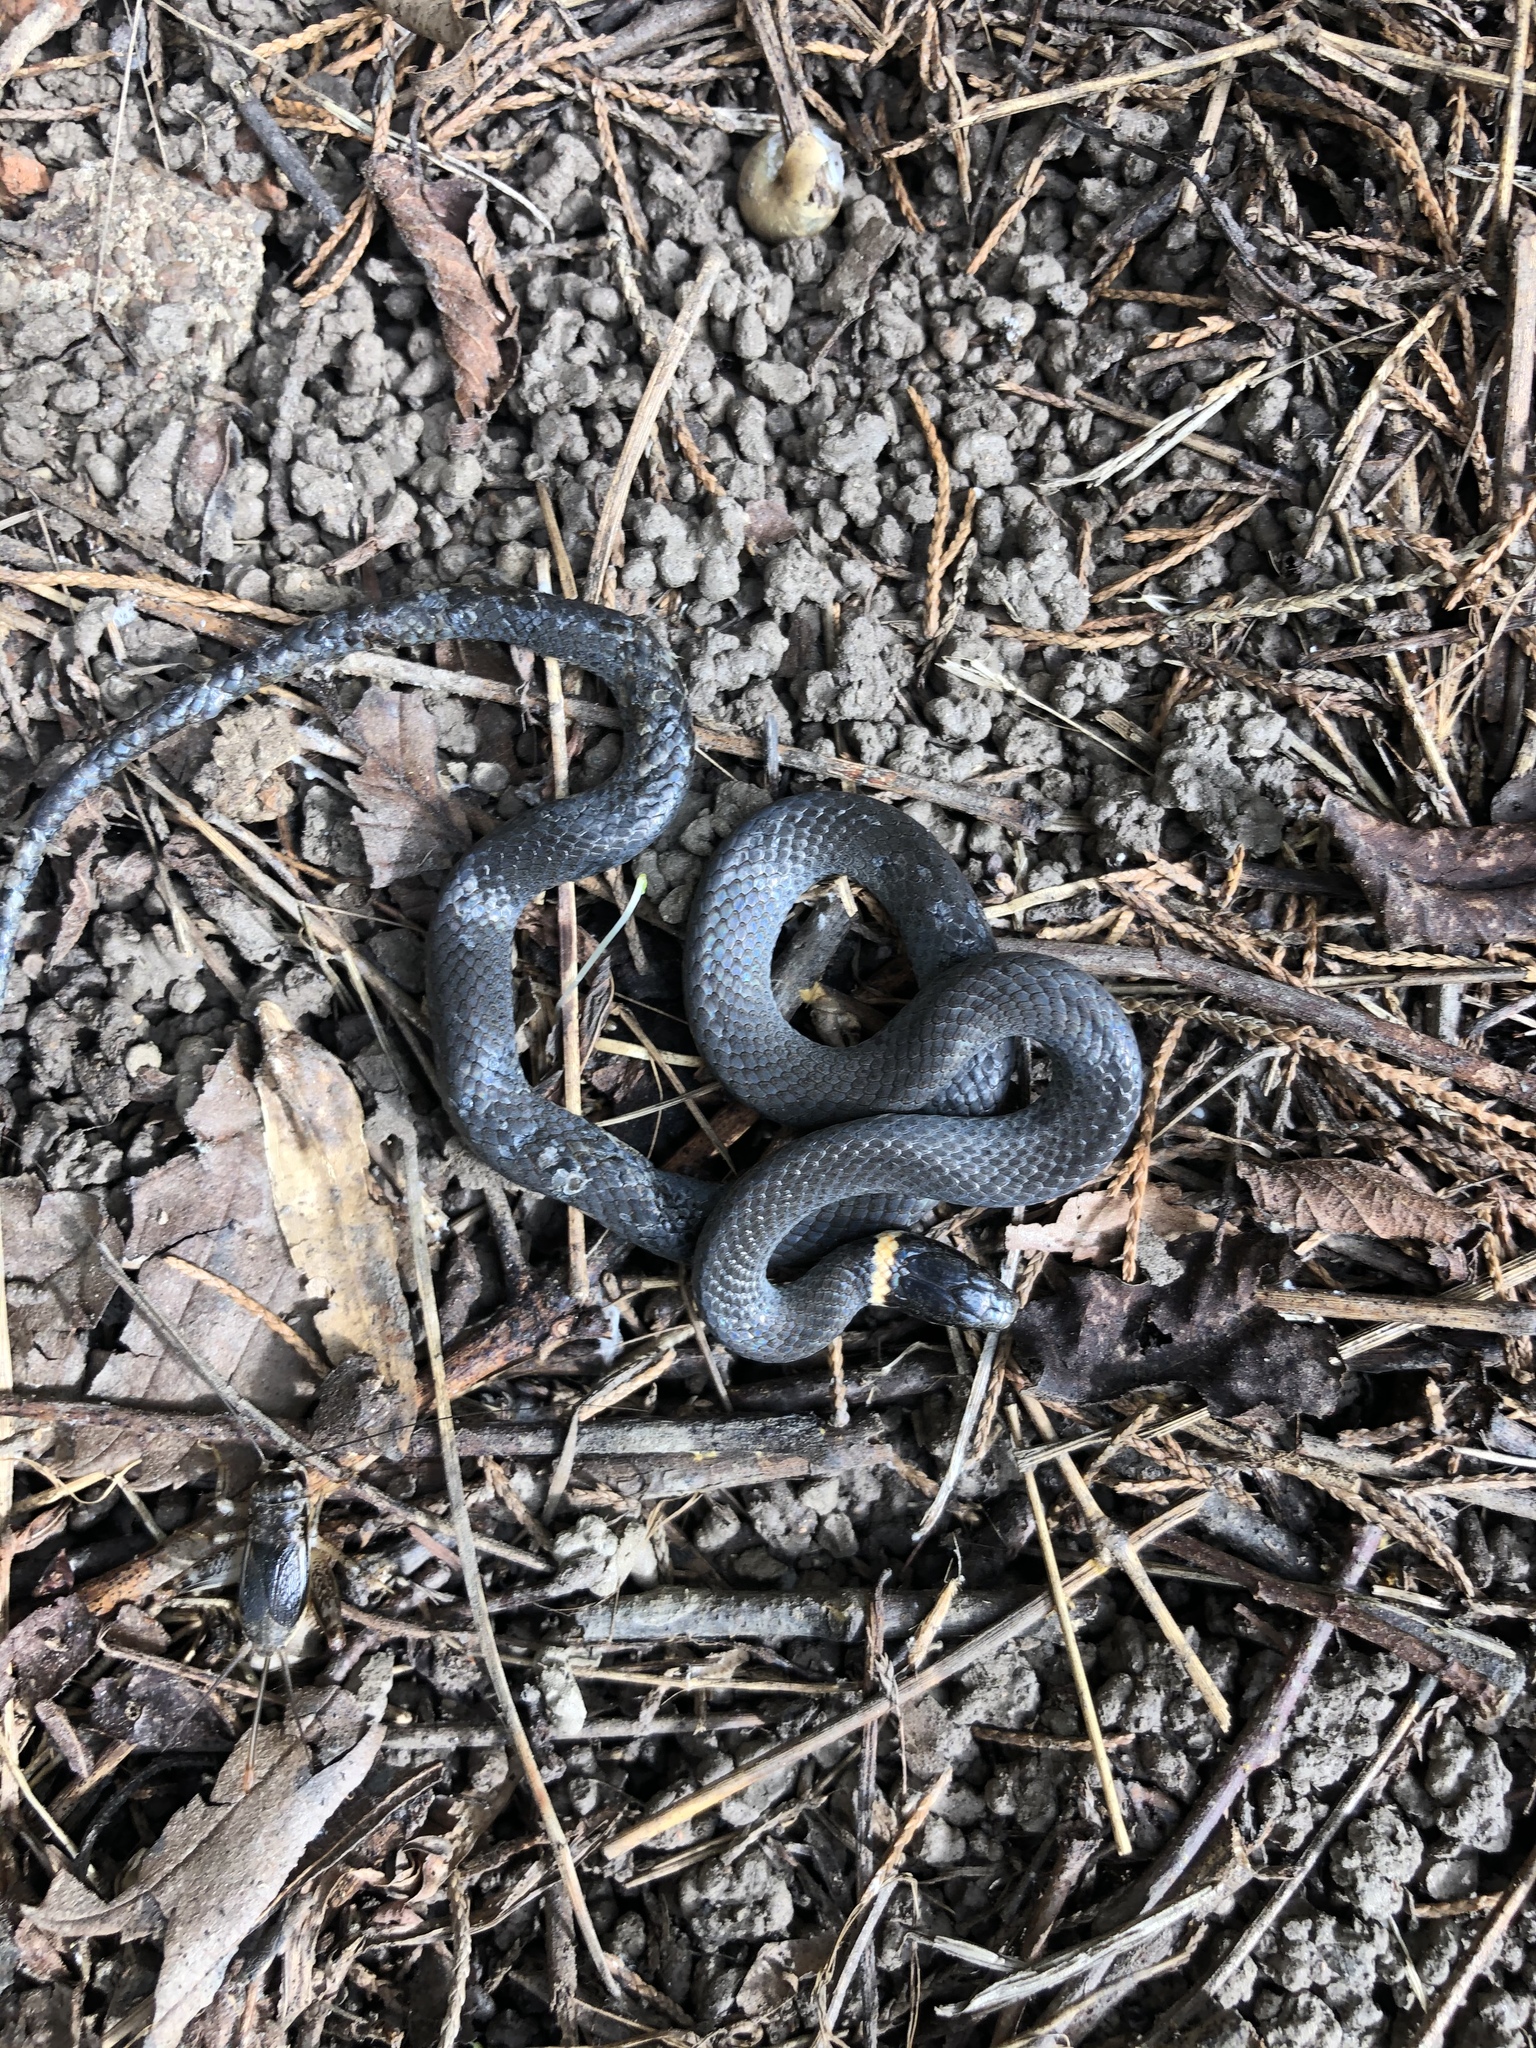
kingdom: Animalia
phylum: Chordata
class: Squamata
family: Colubridae
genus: Diadophis
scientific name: Diadophis punctatus
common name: Ringneck snake
